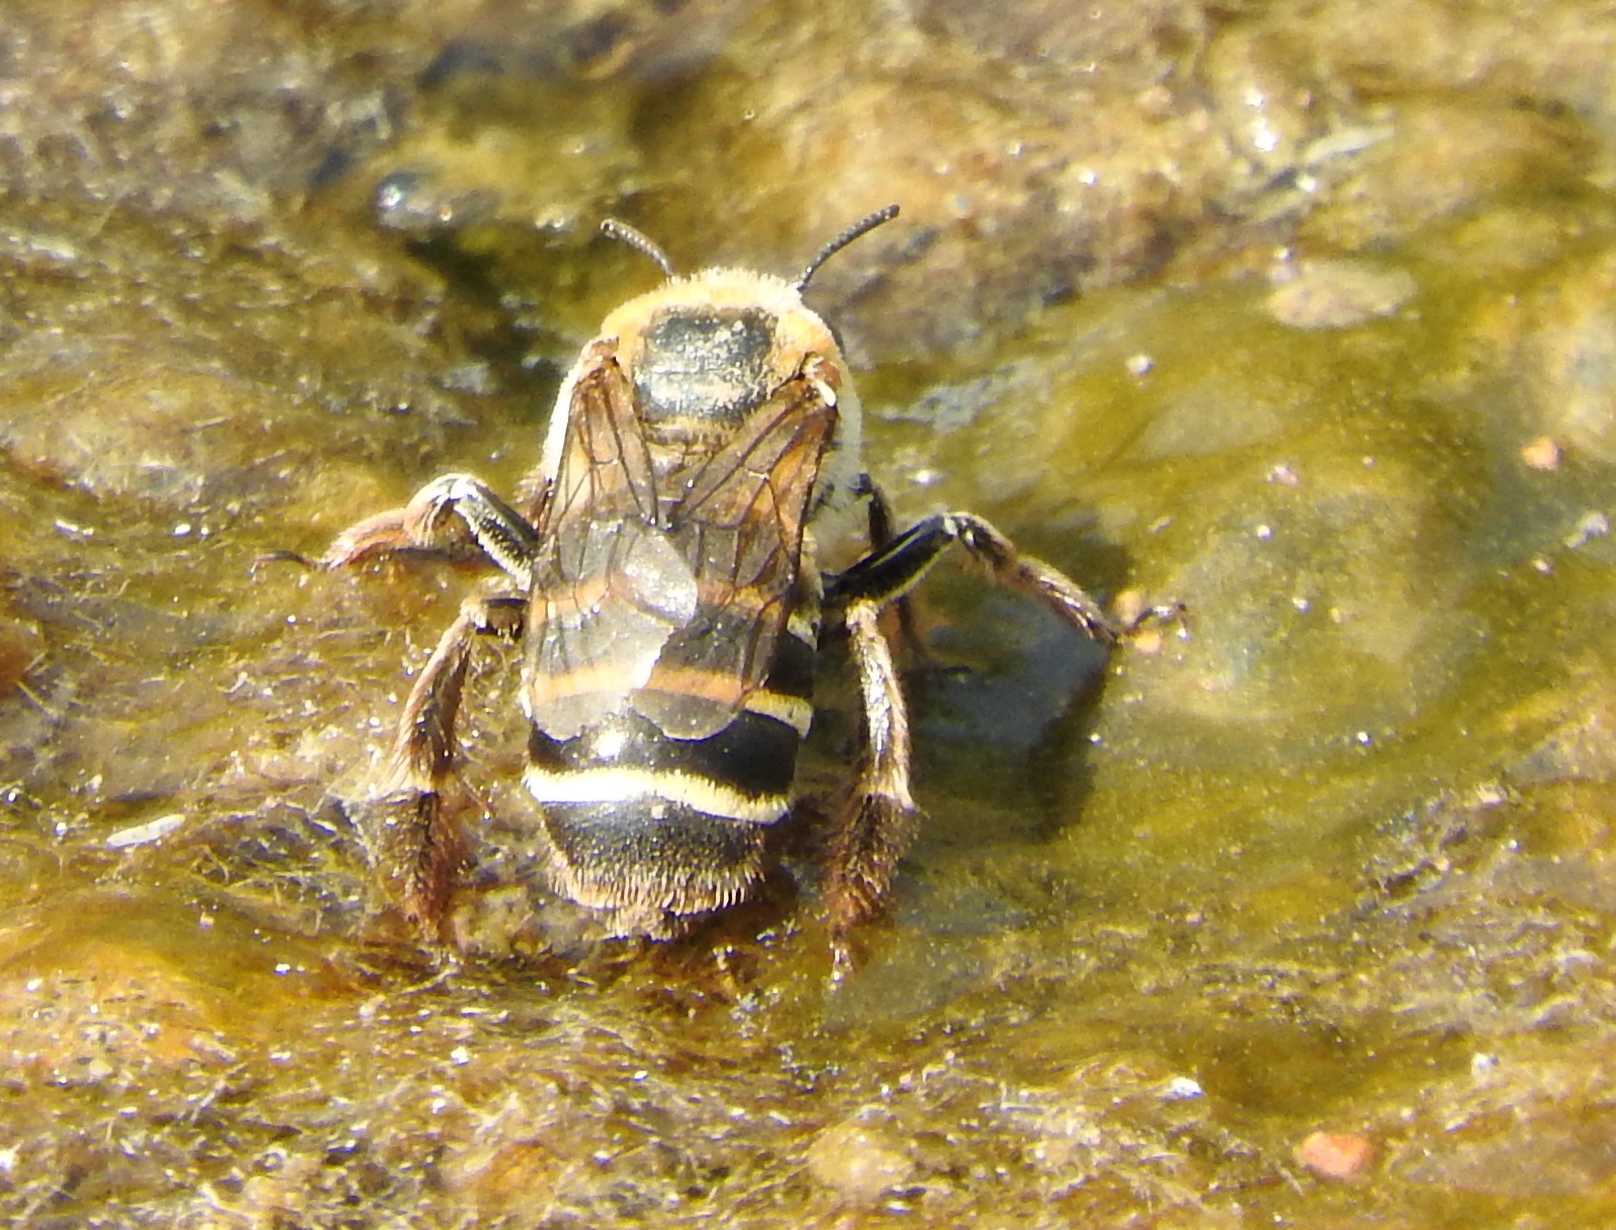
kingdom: Animalia
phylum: Arthropoda
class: Insecta
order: Hymenoptera
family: Apidae
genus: Apidae
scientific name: Apidae
